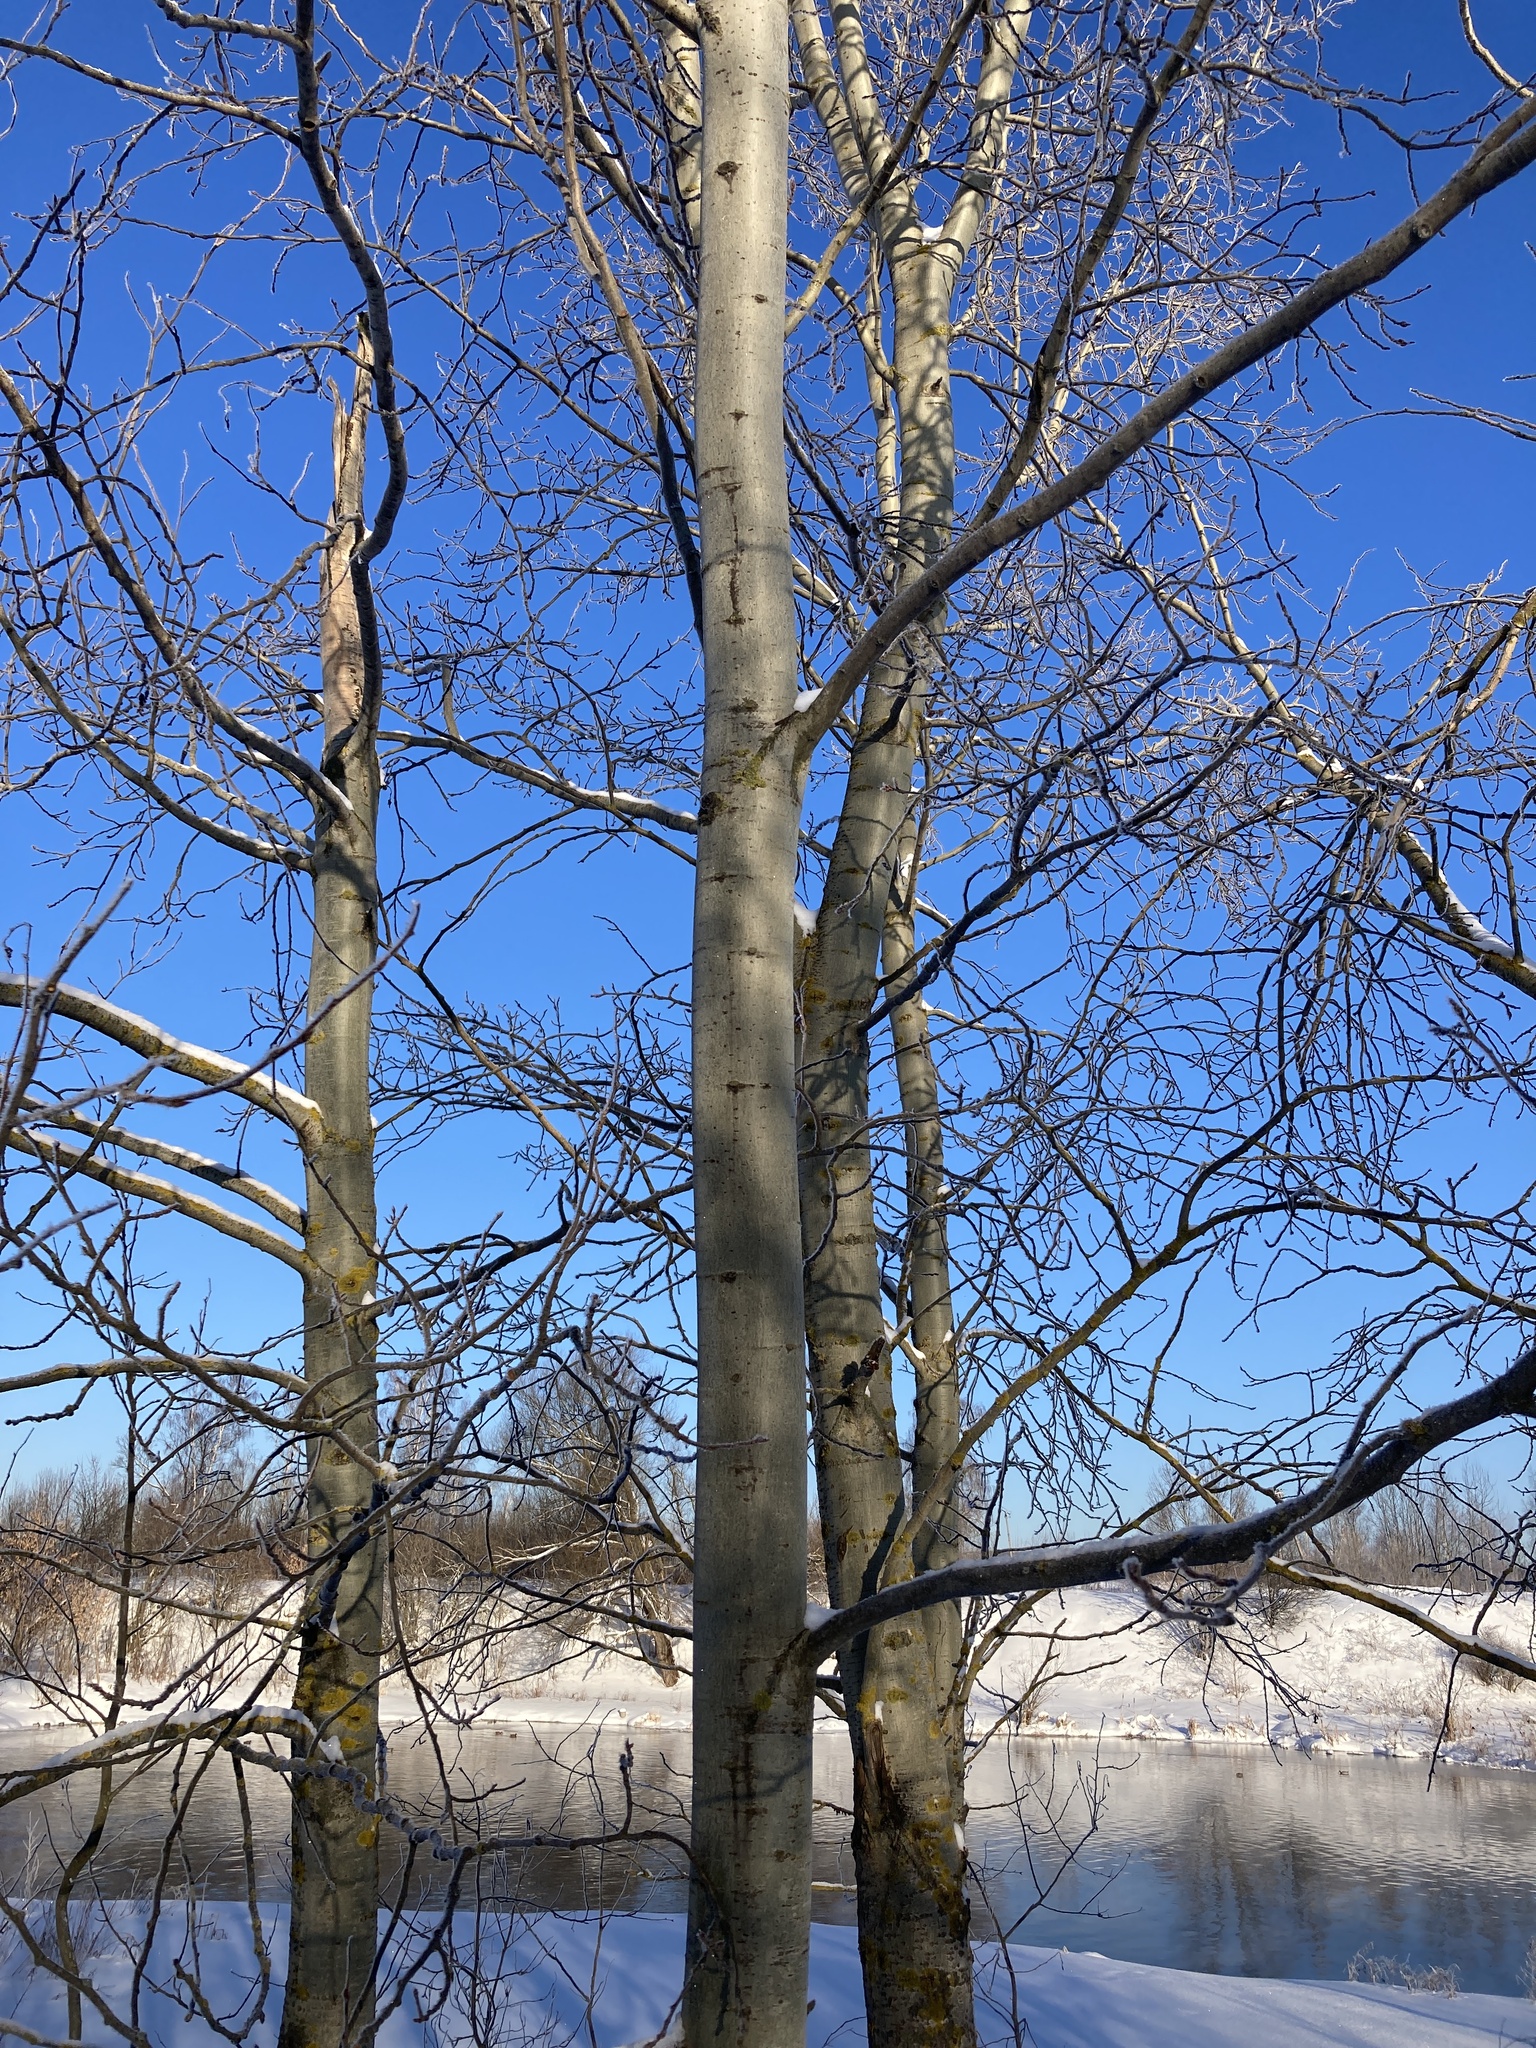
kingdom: Plantae
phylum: Tracheophyta
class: Magnoliopsida
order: Malpighiales
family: Salicaceae
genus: Populus
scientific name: Populus tremula
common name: European aspen
